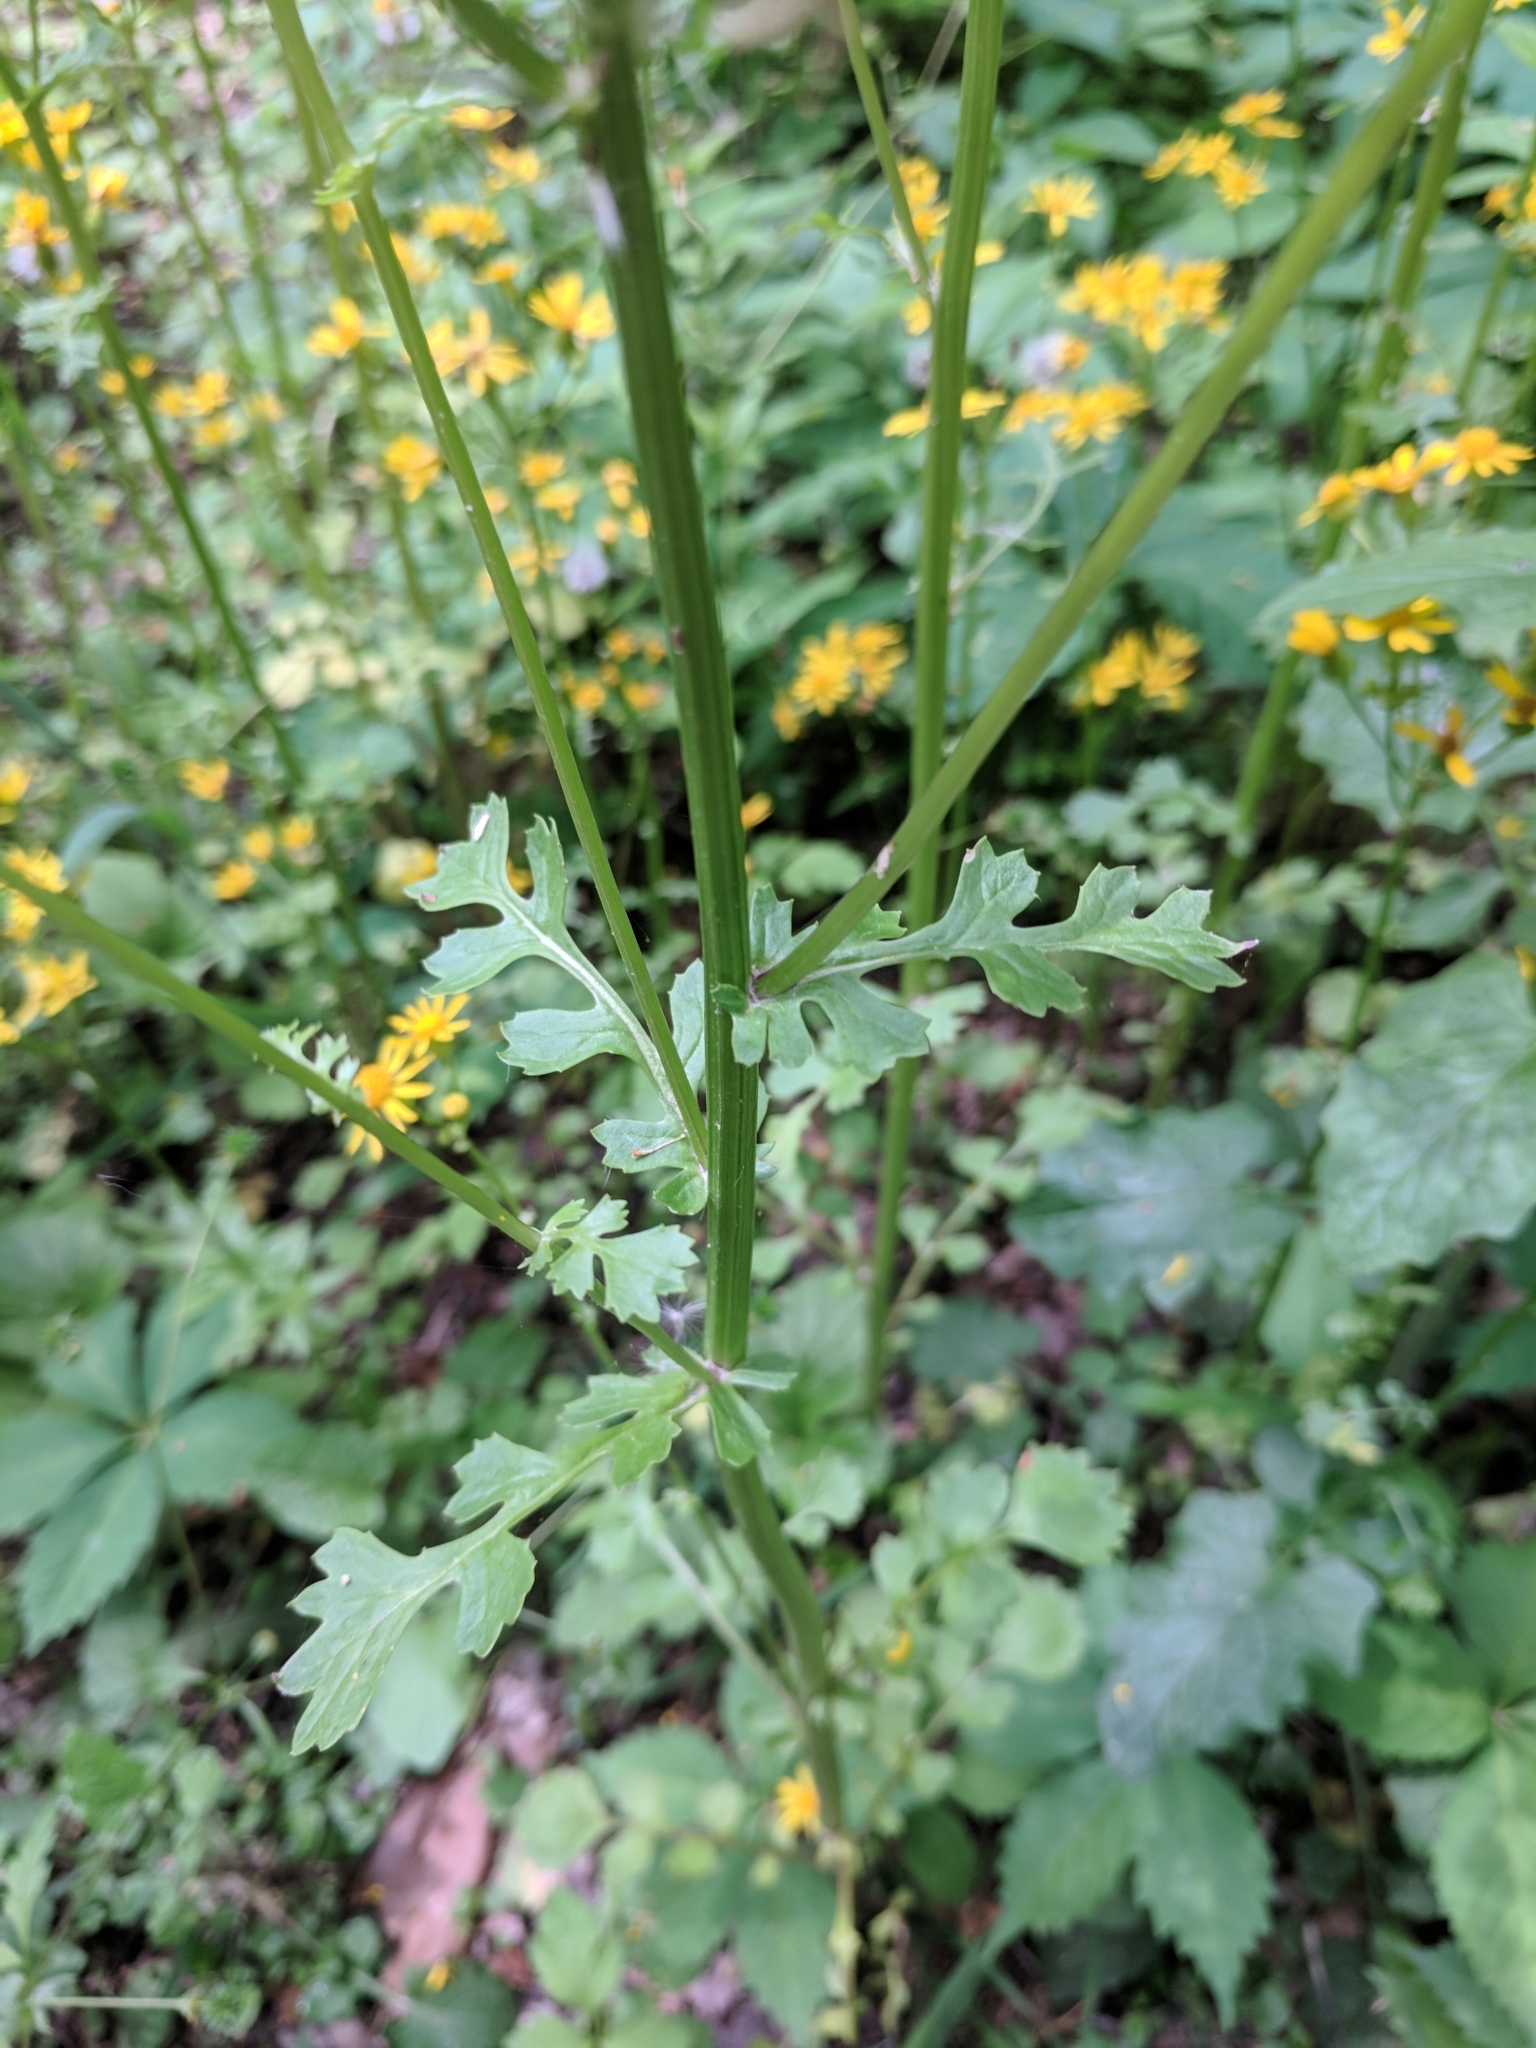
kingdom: Plantae
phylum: Tracheophyta
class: Magnoliopsida
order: Asterales
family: Asteraceae
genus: Packera
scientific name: Packera glabella
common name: Butterweed
